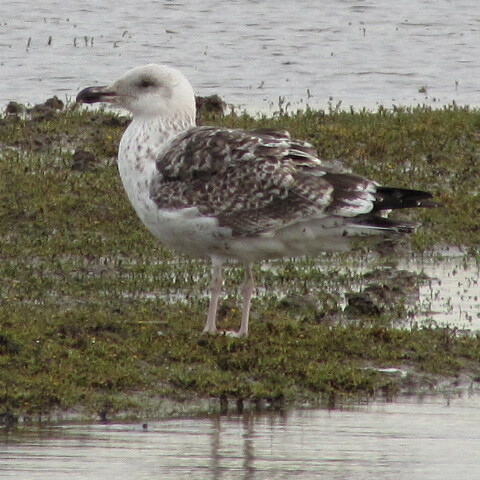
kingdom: Animalia
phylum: Chordata
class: Aves
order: Charadriiformes
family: Laridae
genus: Larus
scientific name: Larus marinus
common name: Great black-backed gull
